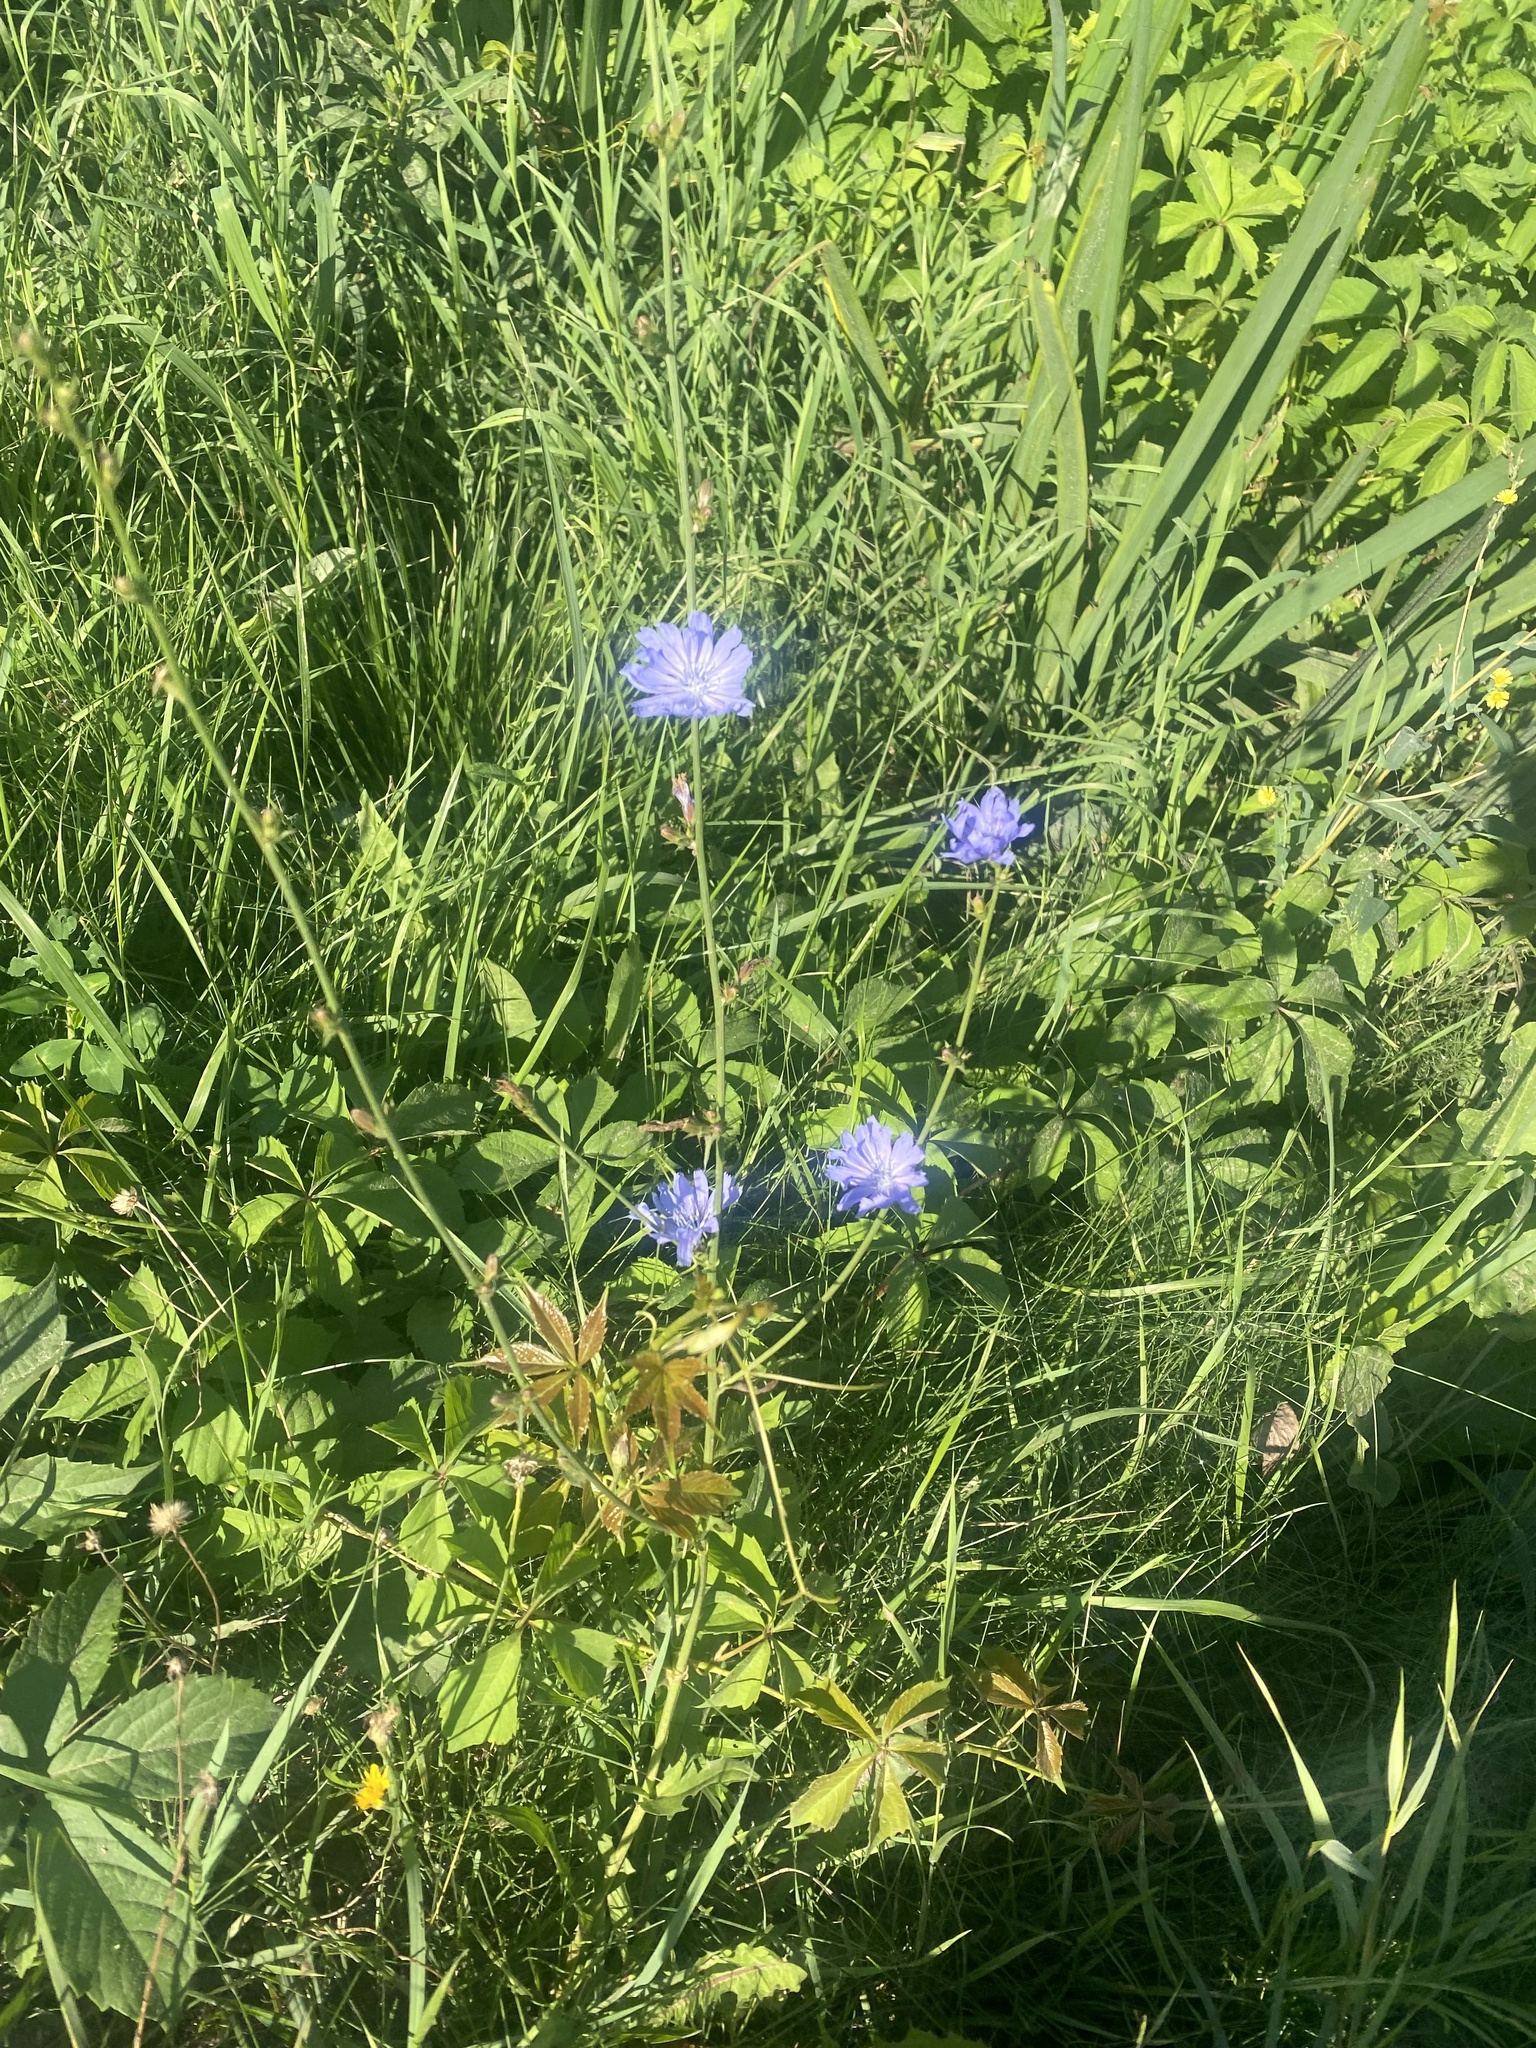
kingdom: Plantae
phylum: Tracheophyta
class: Magnoliopsida
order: Asterales
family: Asteraceae
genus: Cichorium
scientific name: Cichorium intybus
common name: Chicory
